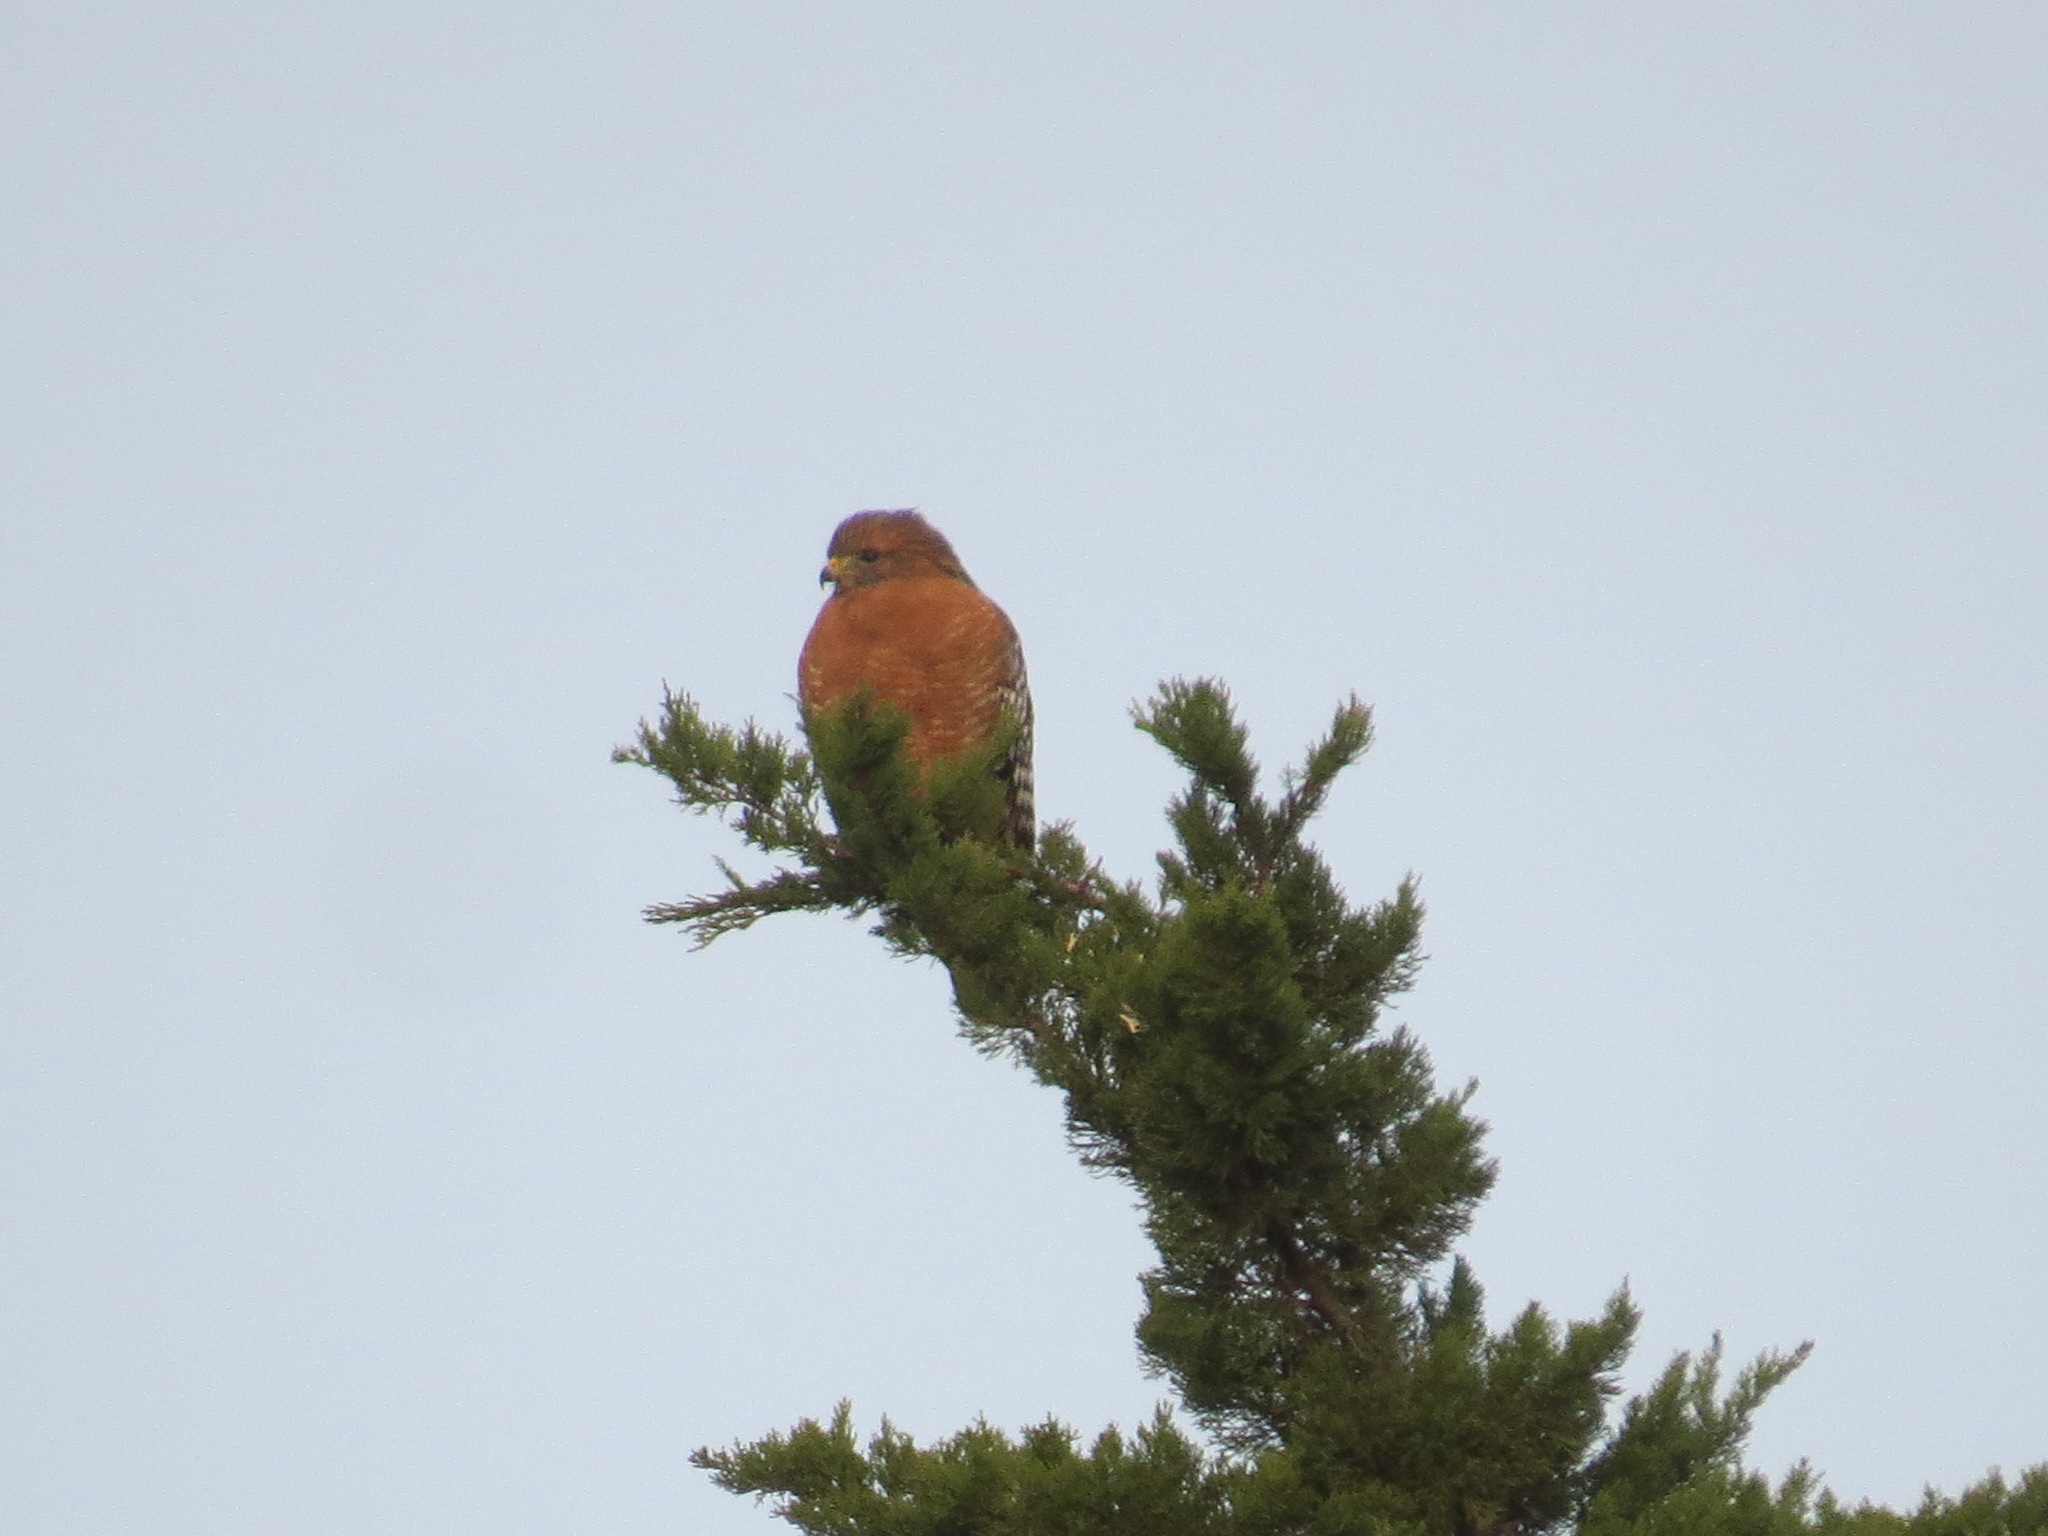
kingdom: Animalia
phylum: Chordata
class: Aves
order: Accipitriformes
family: Accipitridae
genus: Buteo
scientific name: Buteo lineatus
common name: Red-shouldered hawk
